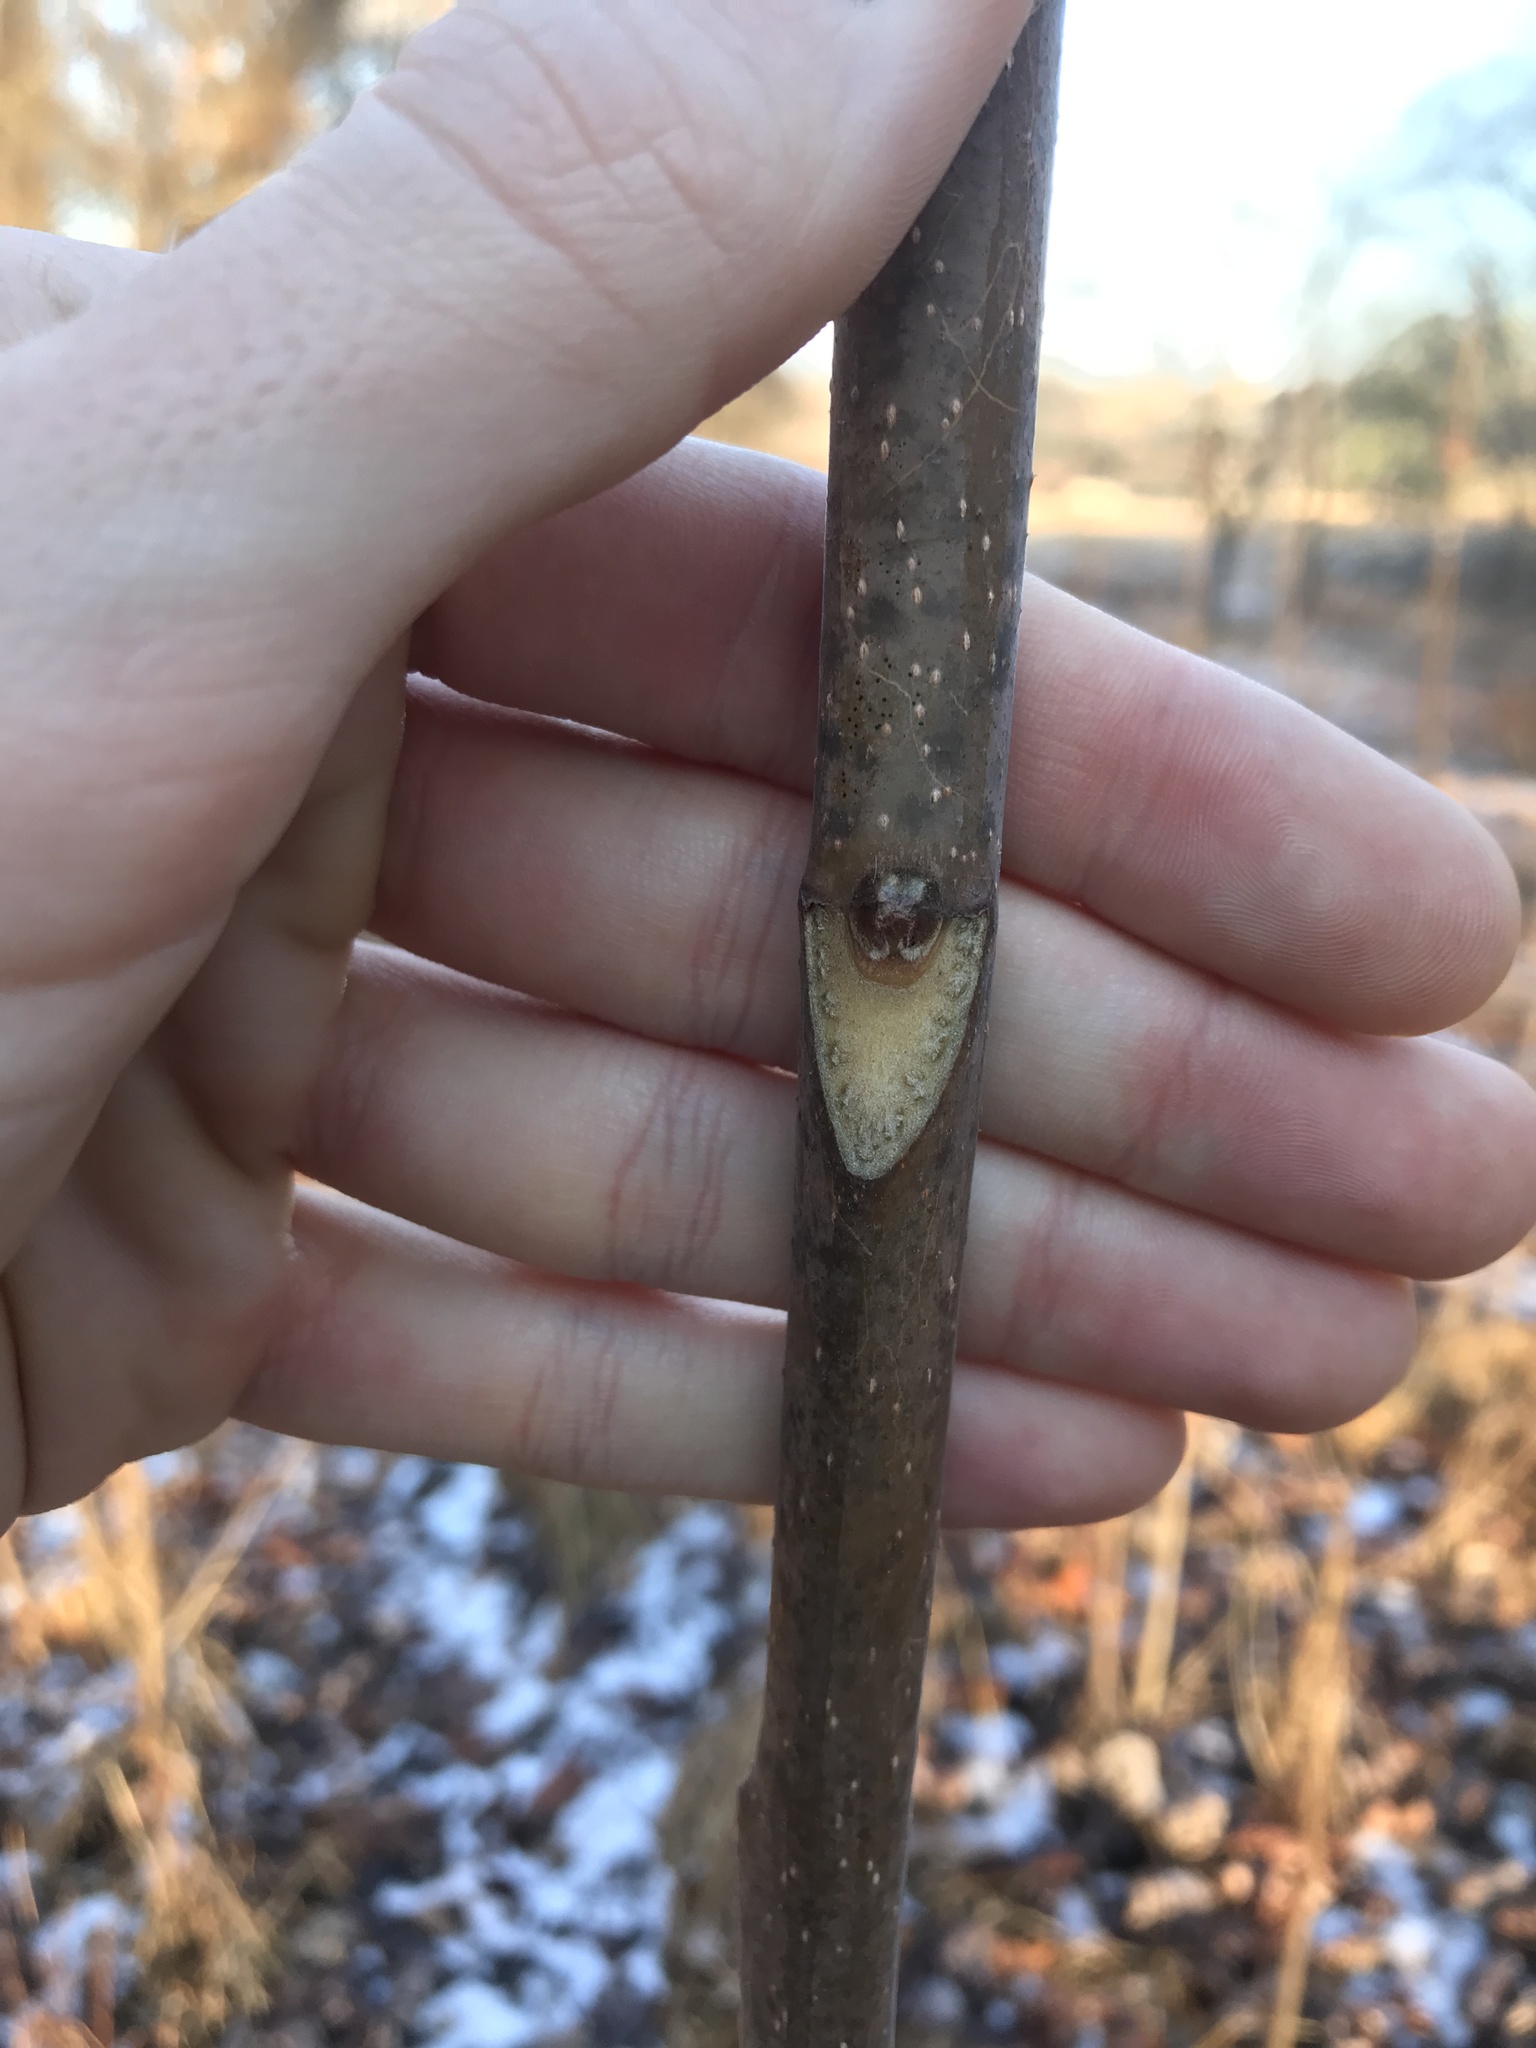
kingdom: Plantae
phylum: Tracheophyta
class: Magnoliopsida
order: Sapindales
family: Simaroubaceae
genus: Ailanthus
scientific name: Ailanthus altissima
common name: Tree-of-heaven
